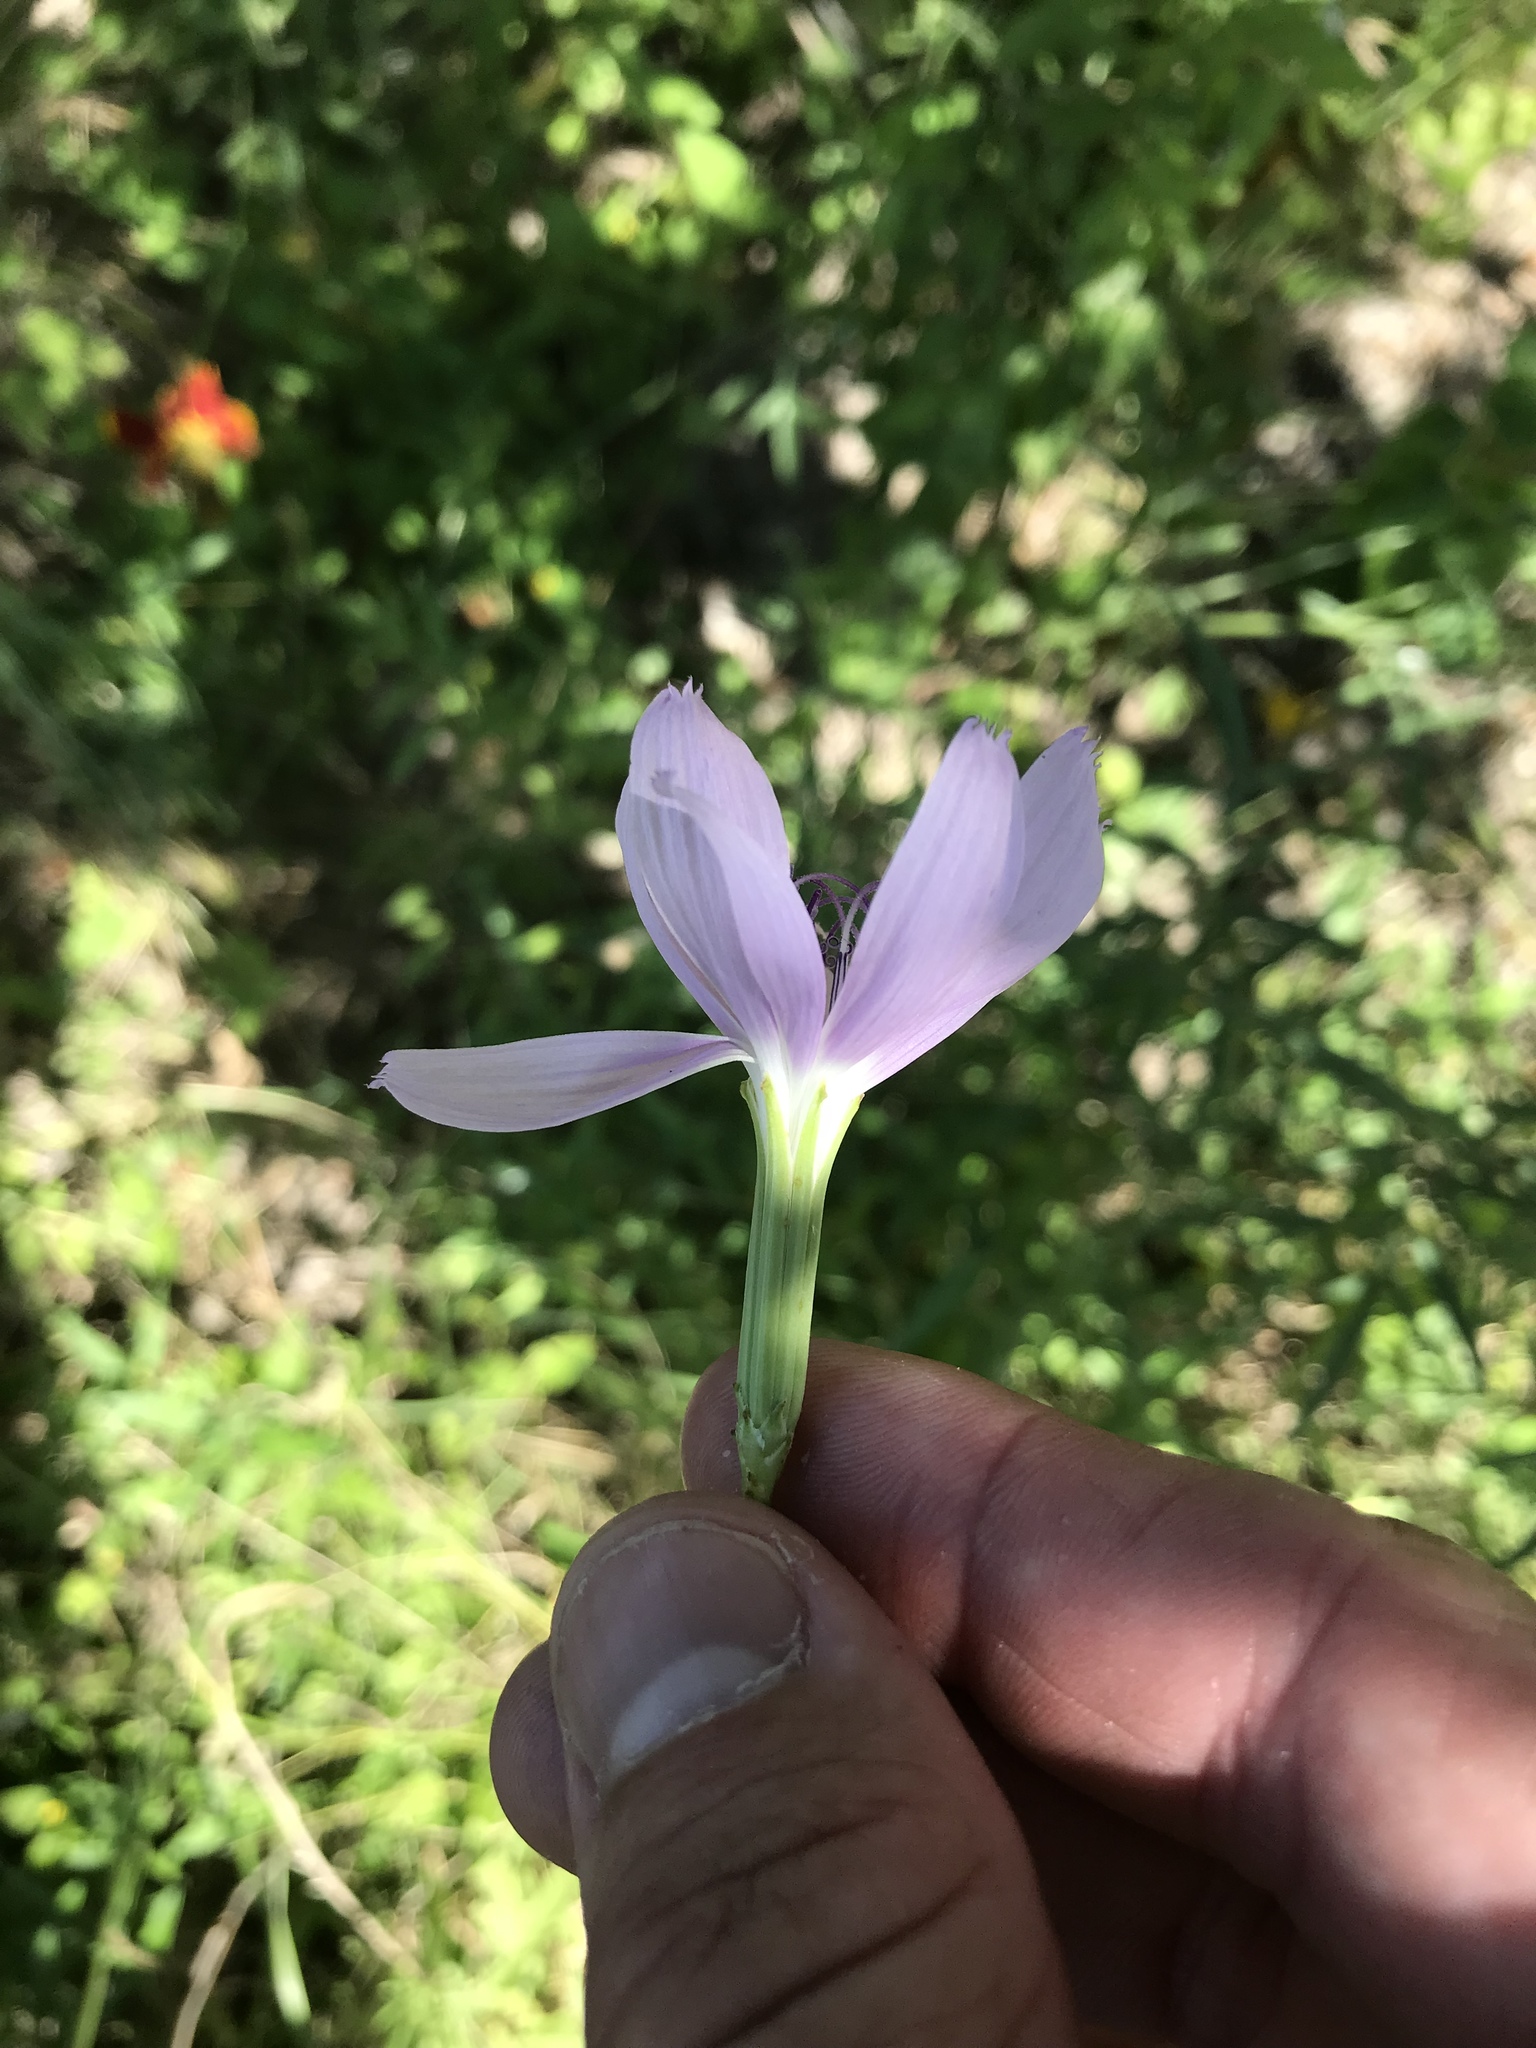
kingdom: Plantae
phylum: Tracheophyta
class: Magnoliopsida
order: Asterales
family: Asteraceae
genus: Lygodesmia
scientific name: Lygodesmia texana
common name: Texas skeleton-plant
